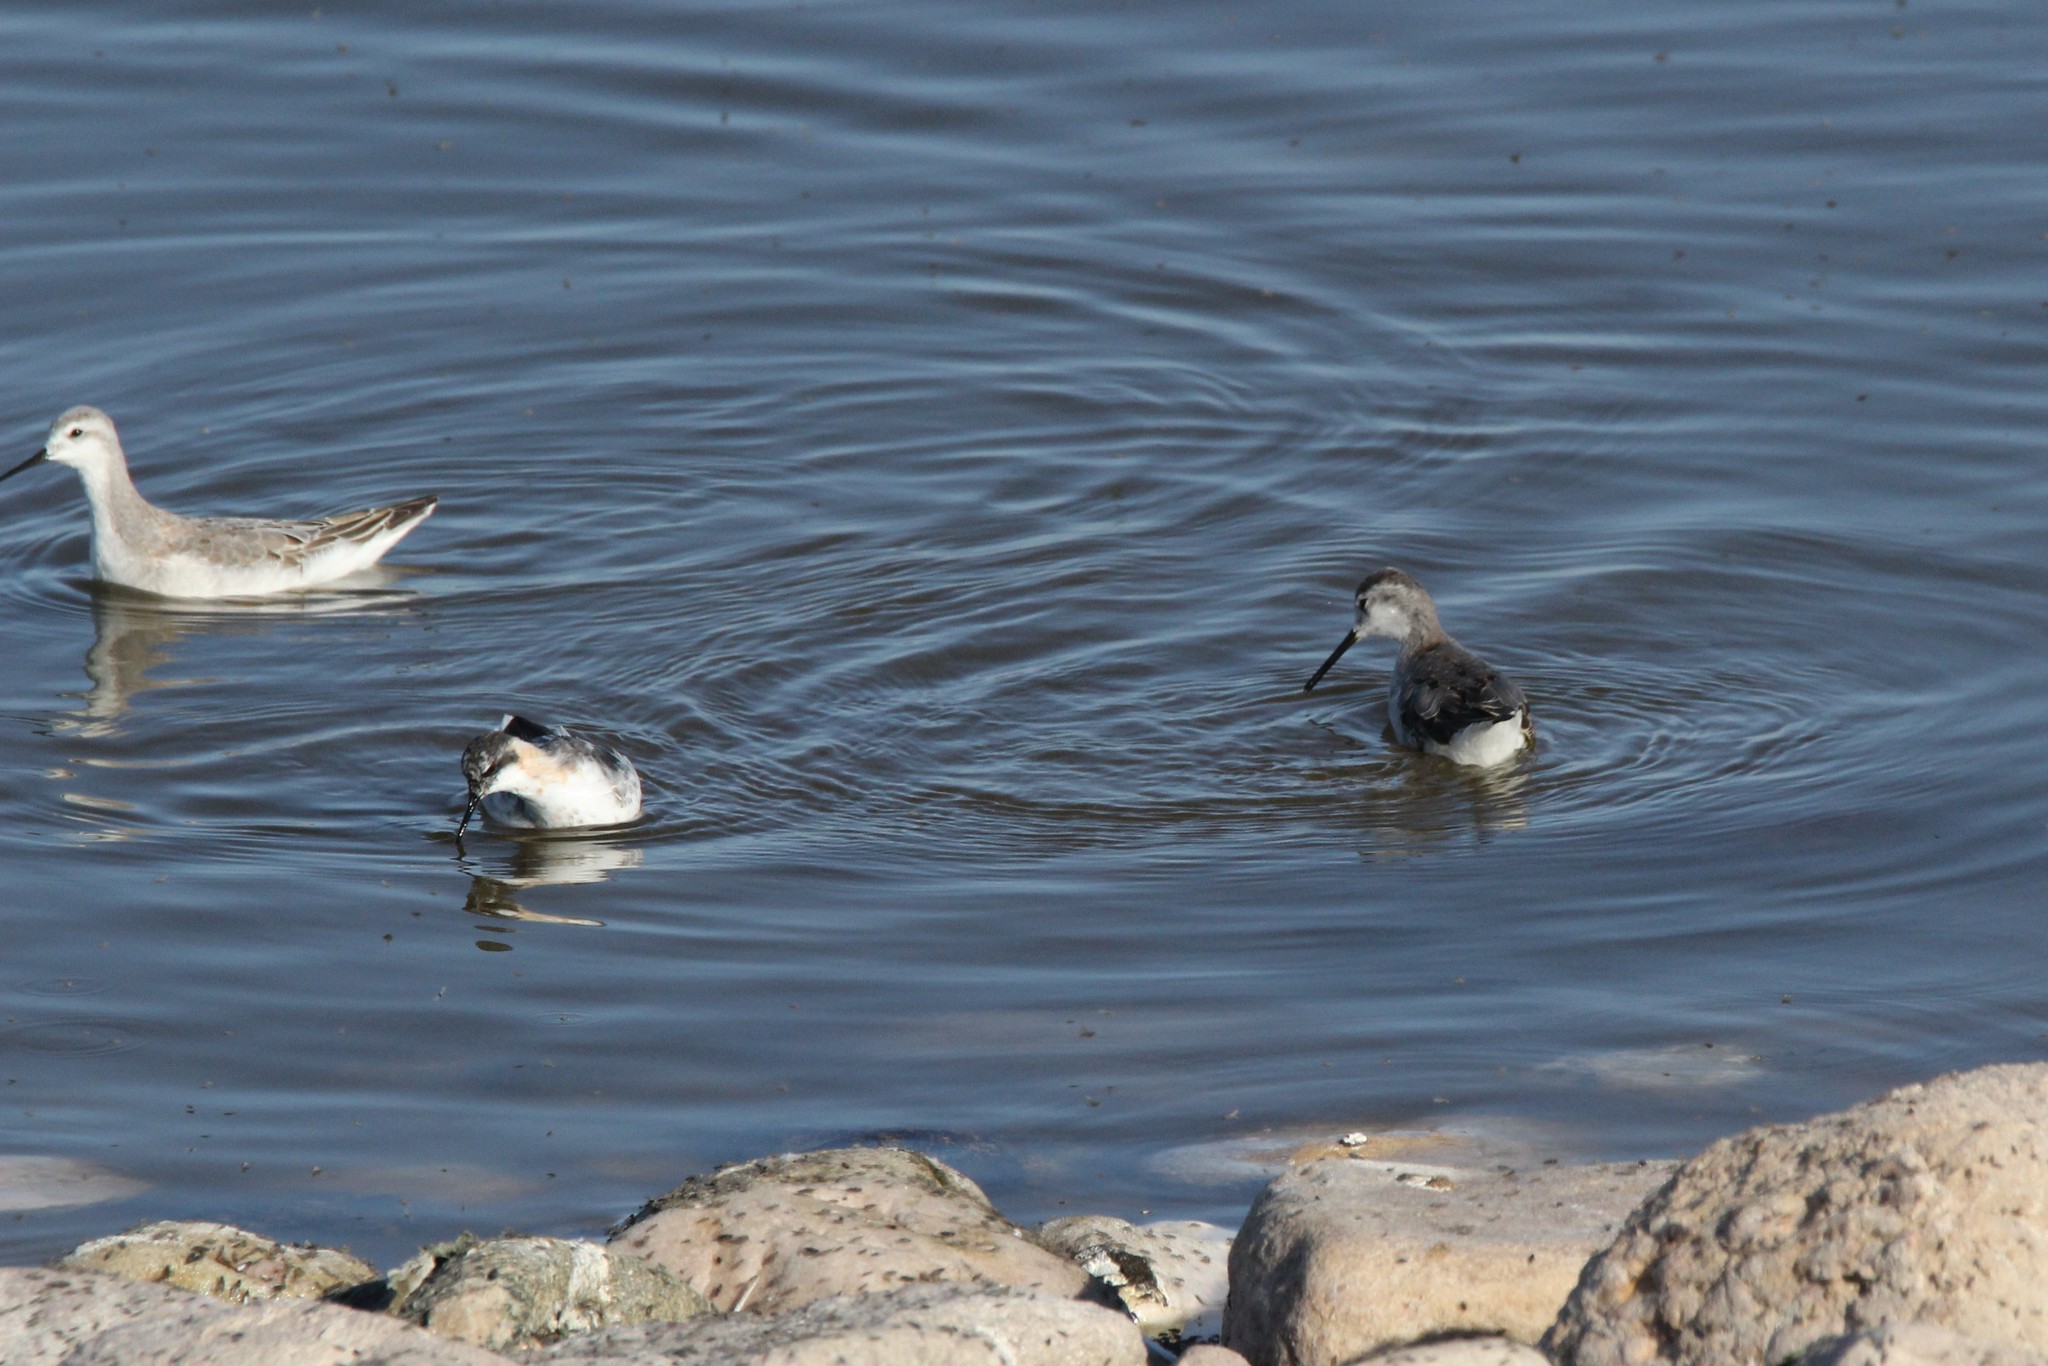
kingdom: Animalia
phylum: Chordata
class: Aves
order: Charadriiformes
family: Scolopacidae
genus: Phalaropus
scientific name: Phalaropus tricolor
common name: Wilson's phalarope
